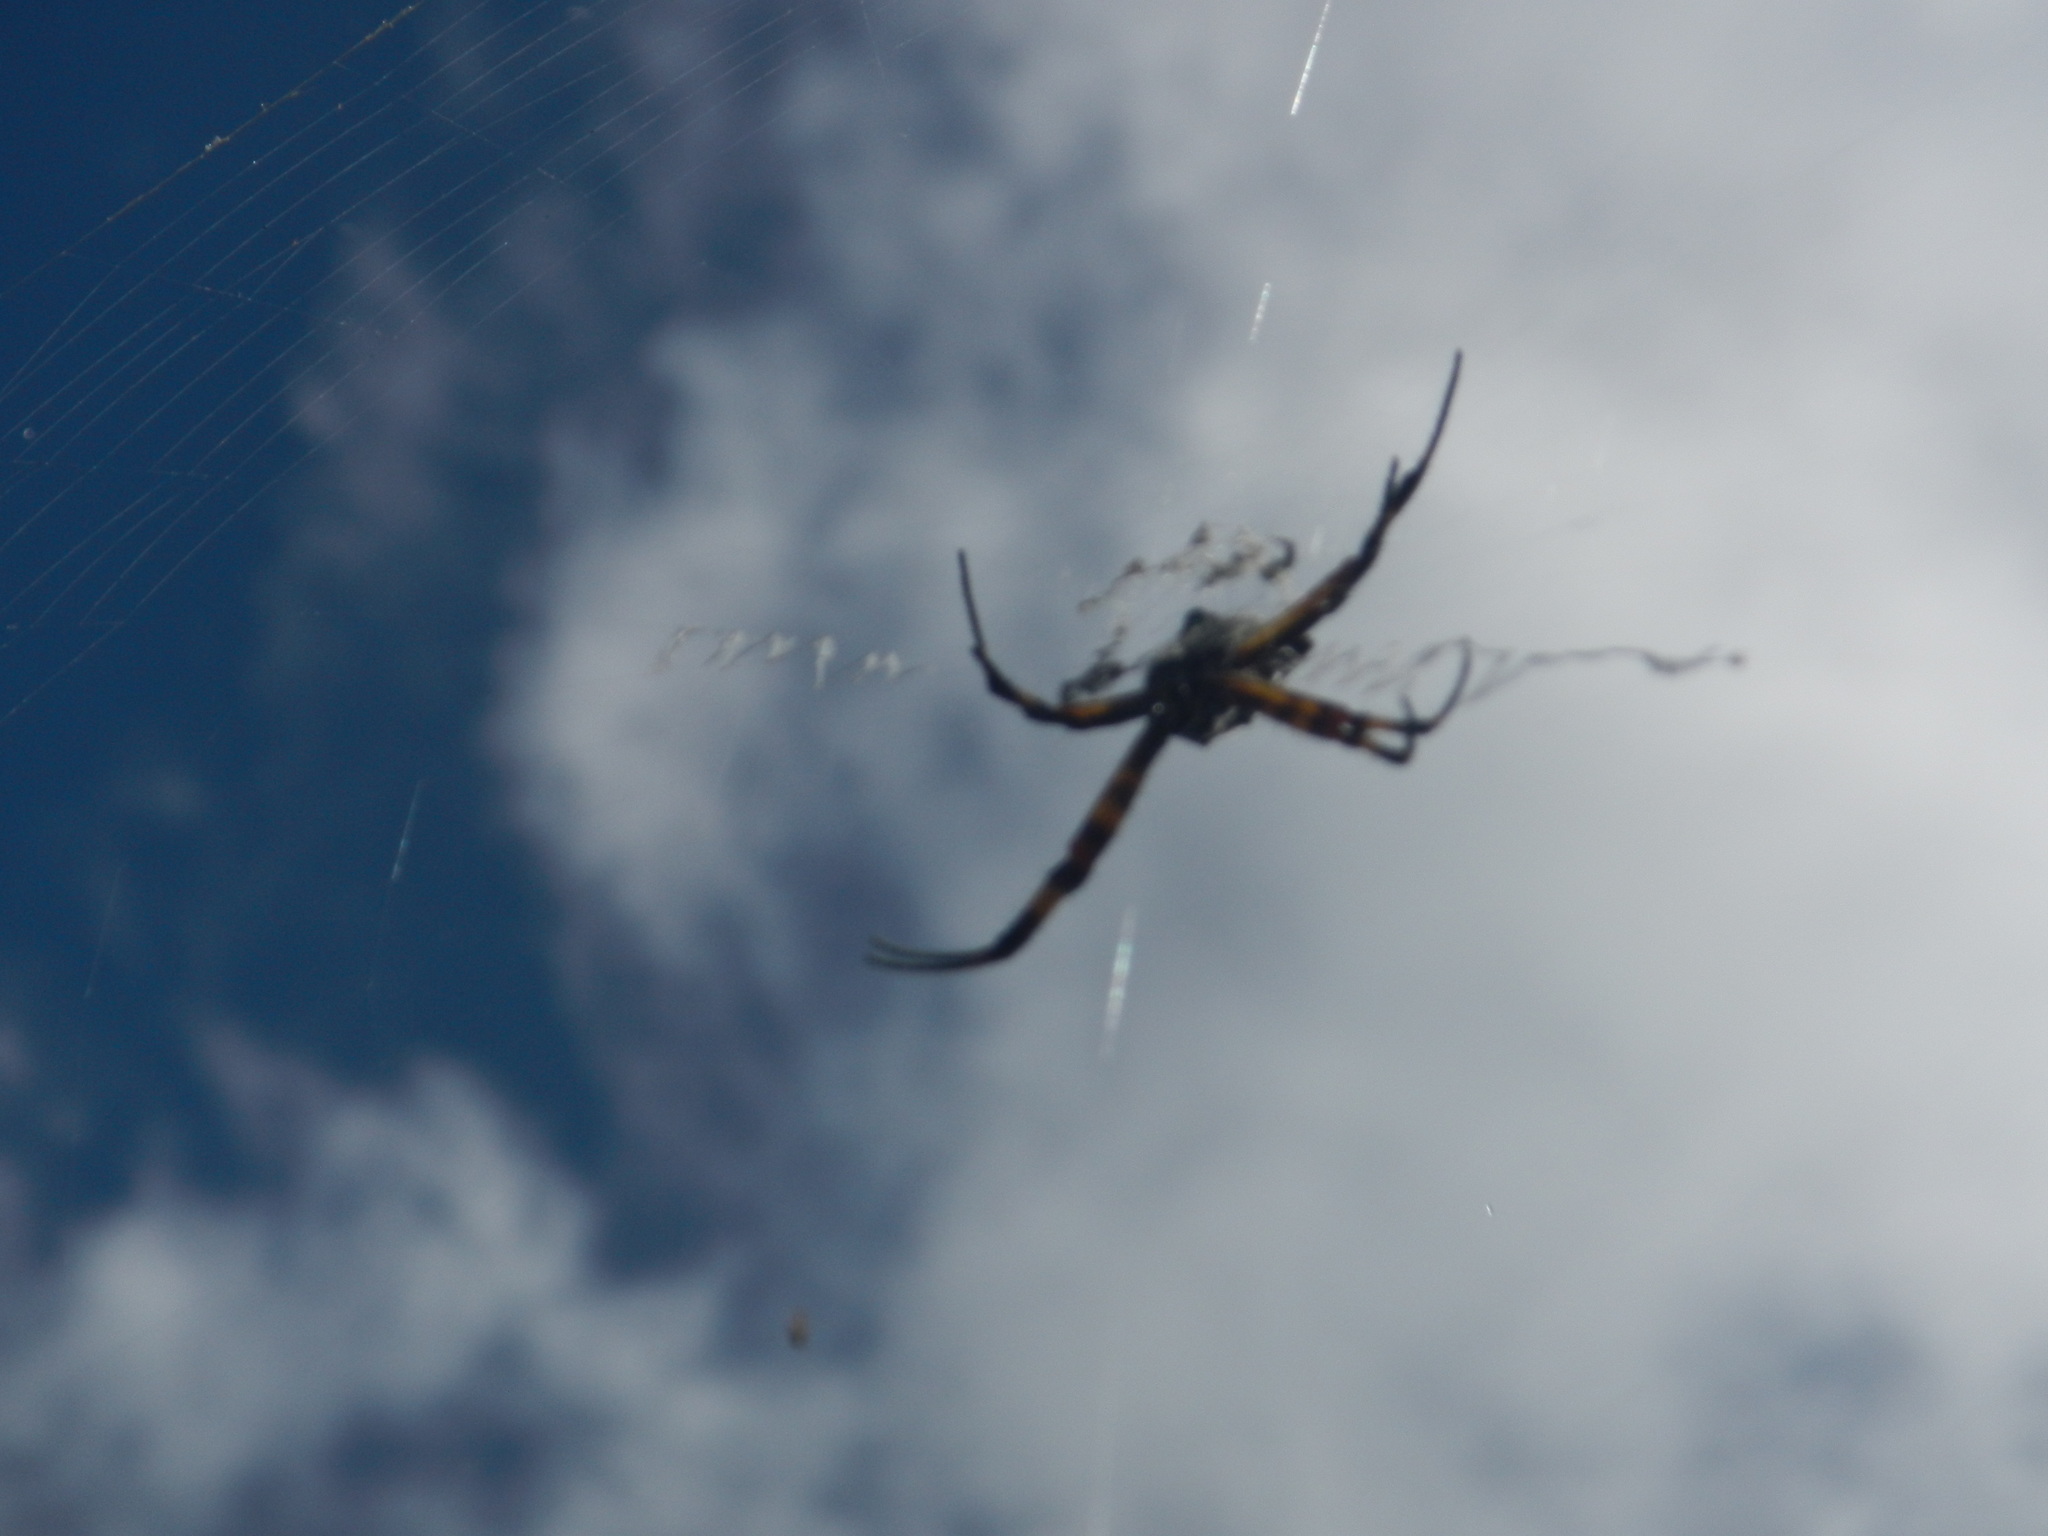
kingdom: Animalia
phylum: Arthropoda
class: Arachnida
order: Araneae
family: Araneidae
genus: Argiope
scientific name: Argiope argentata
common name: Orb weavers
